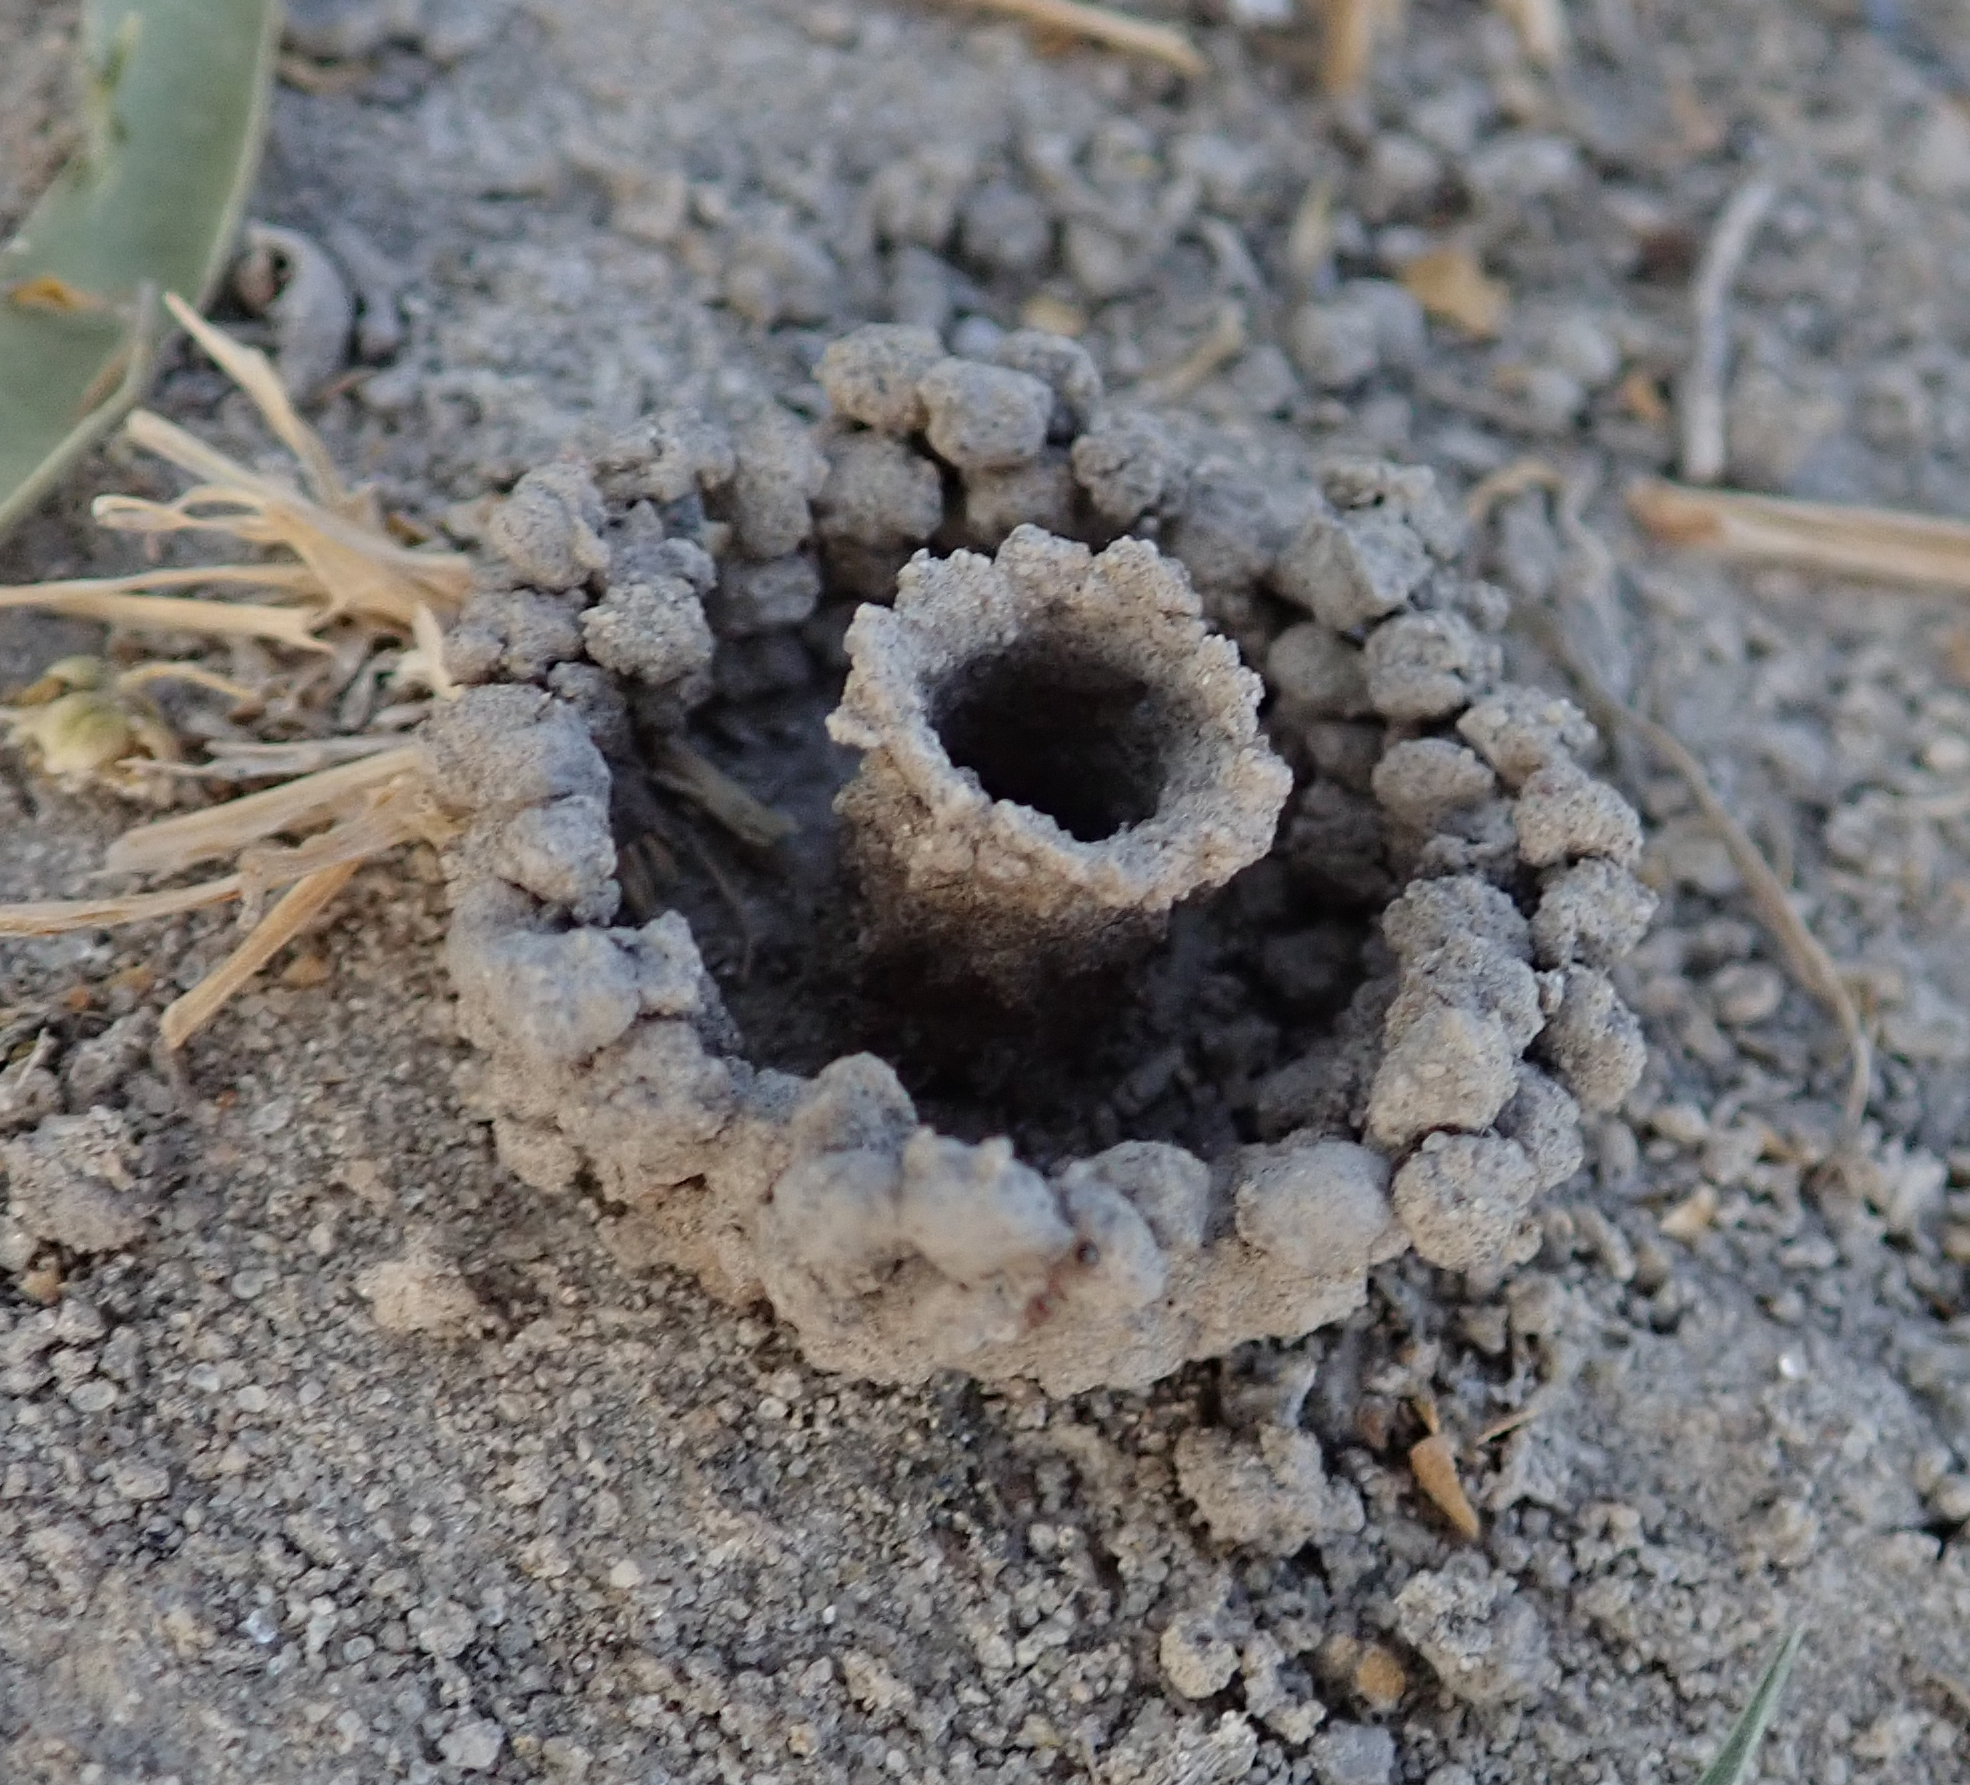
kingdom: Animalia
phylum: Arthropoda
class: Insecta
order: Hymenoptera
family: Eumenidae
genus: Allepipona
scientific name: Allepipona
